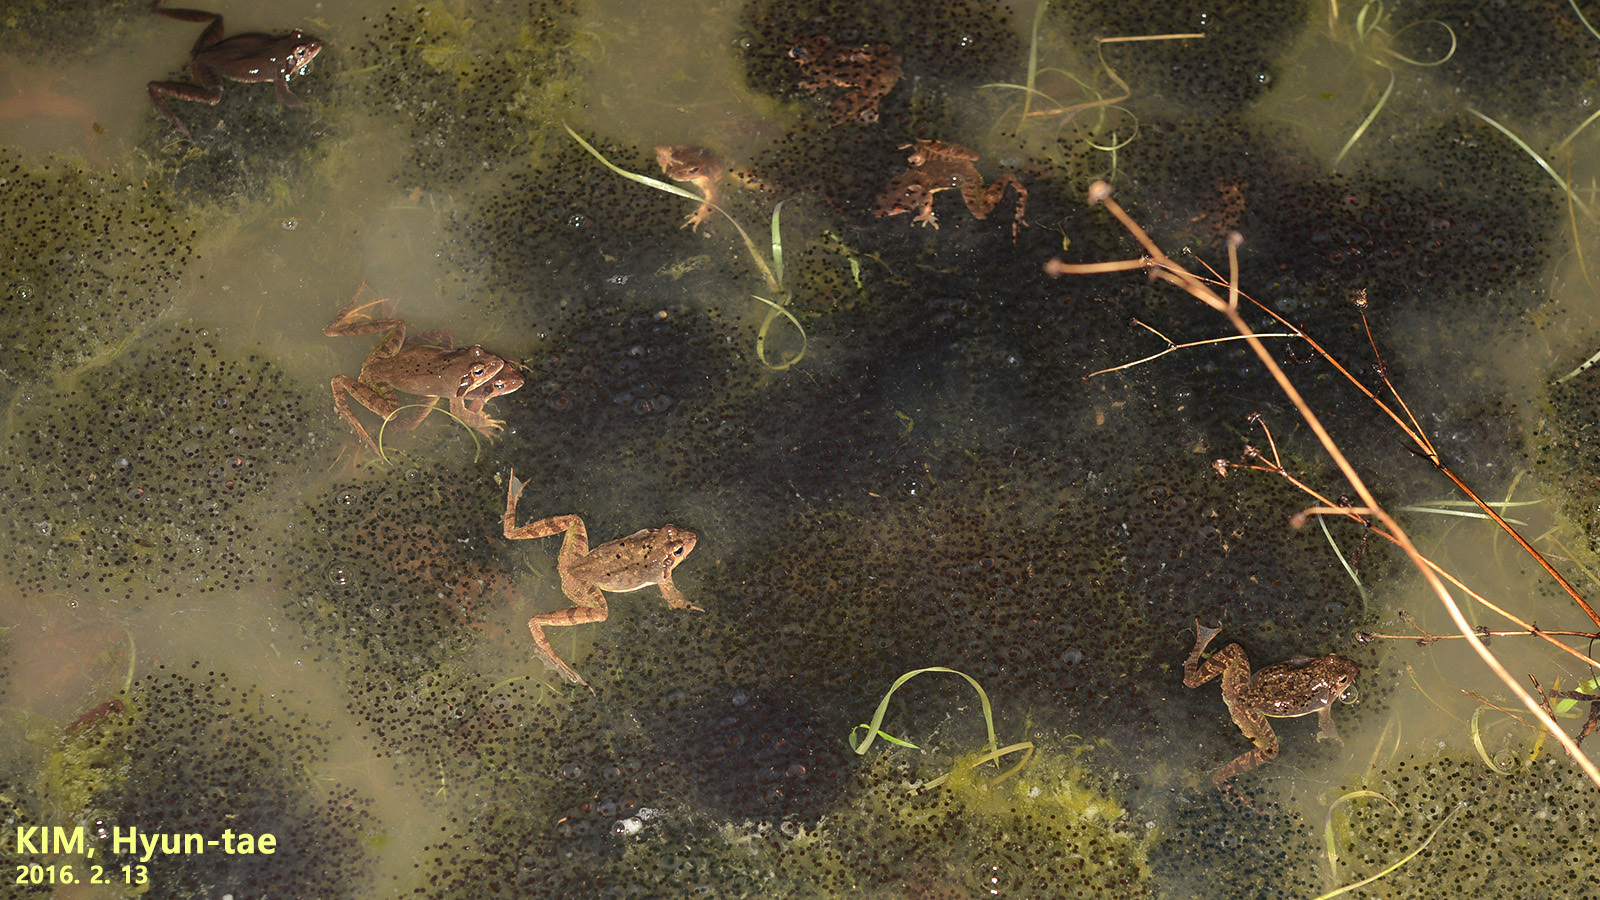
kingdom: Animalia
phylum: Chordata
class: Amphibia
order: Anura
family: Ranidae
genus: Rana
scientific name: Rana uenoi
